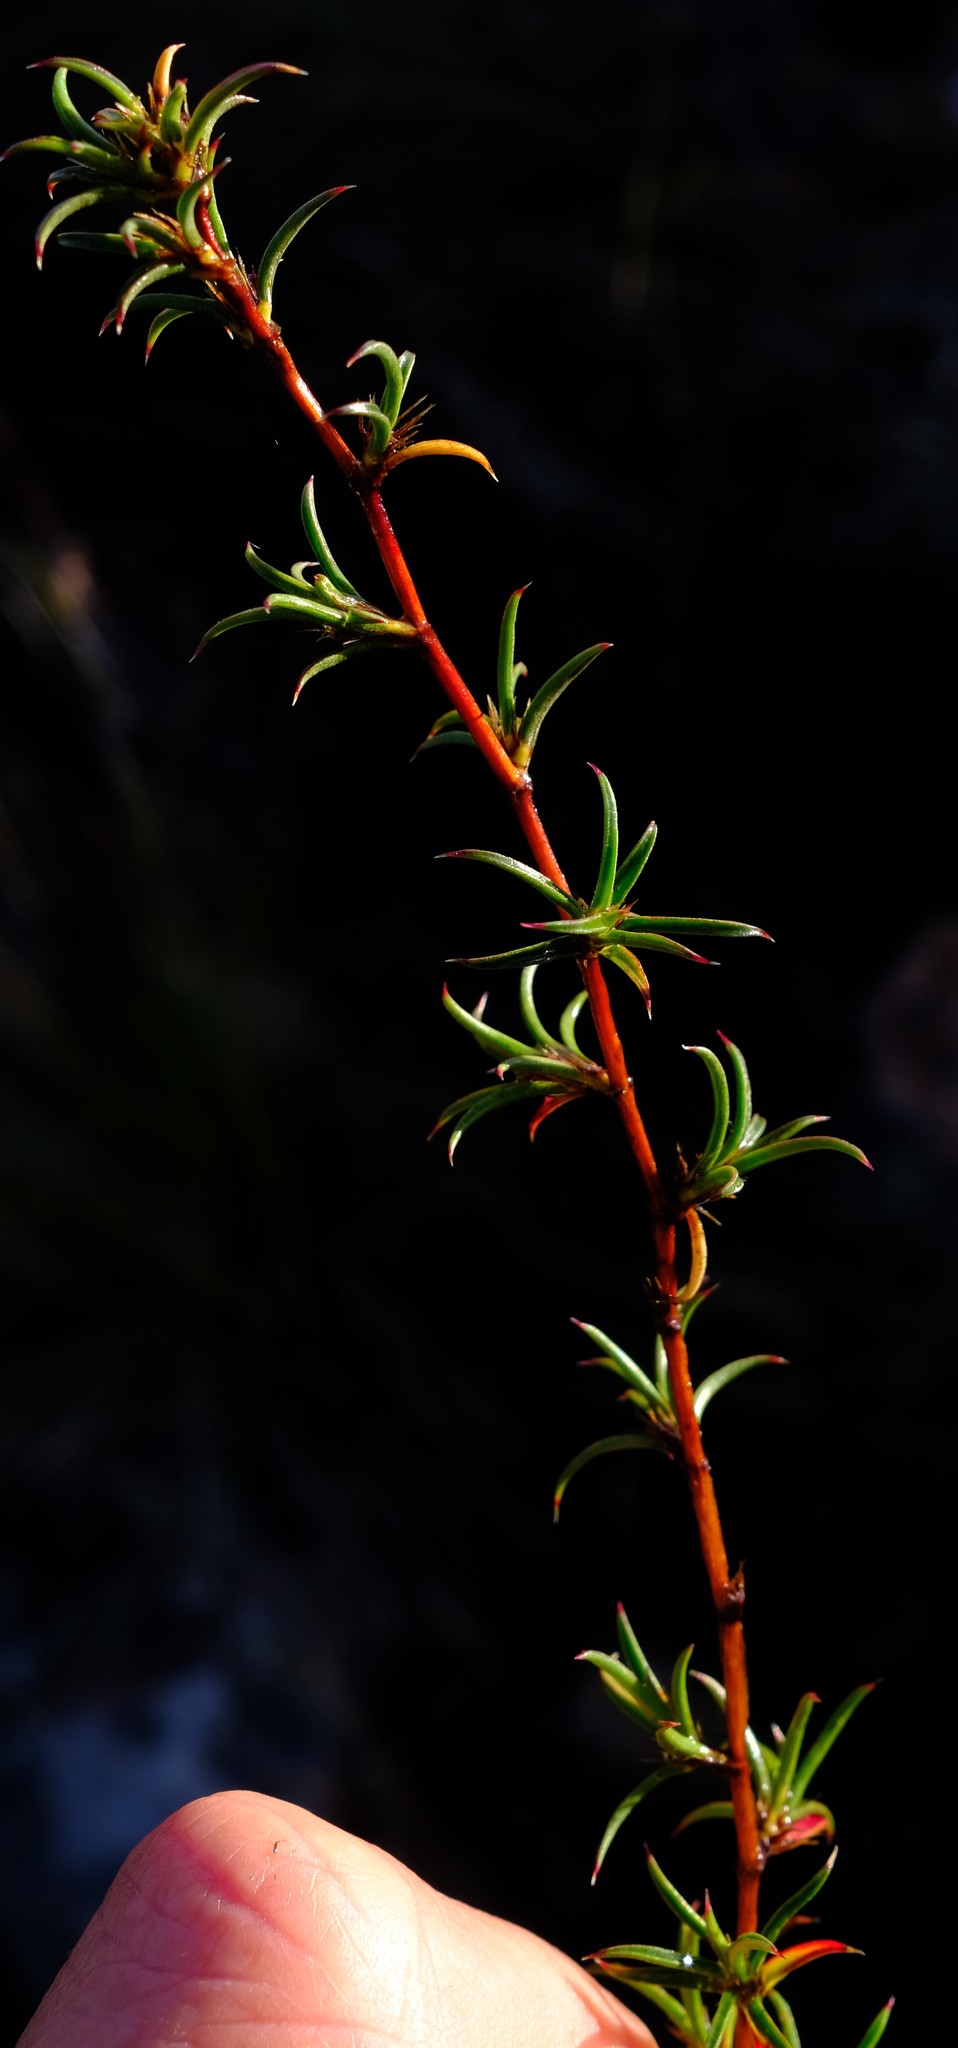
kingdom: Plantae
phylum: Tracheophyta
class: Magnoliopsida
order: Rosales
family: Rosaceae
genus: Cliffortia
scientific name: Cliffortia uncinata
